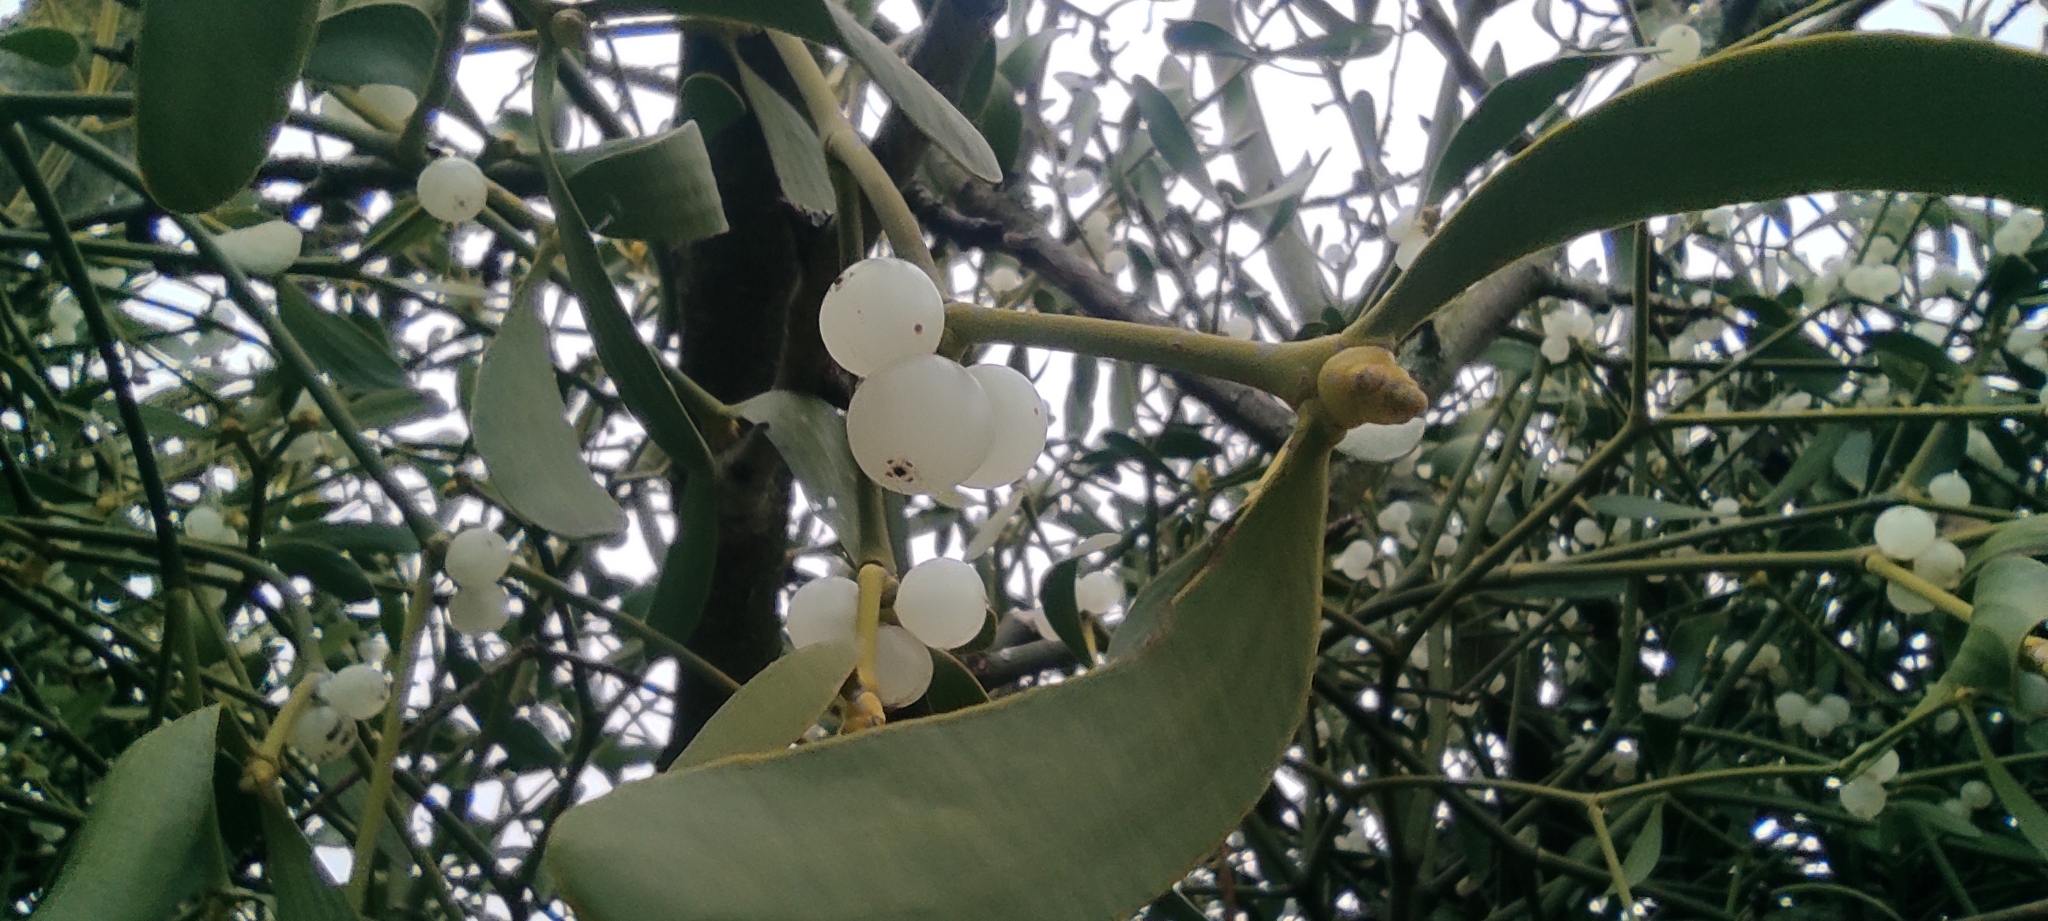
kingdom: Plantae
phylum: Tracheophyta
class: Magnoliopsida
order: Santalales
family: Viscaceae
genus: Viscum
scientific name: Viscum album
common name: Mistletoe
